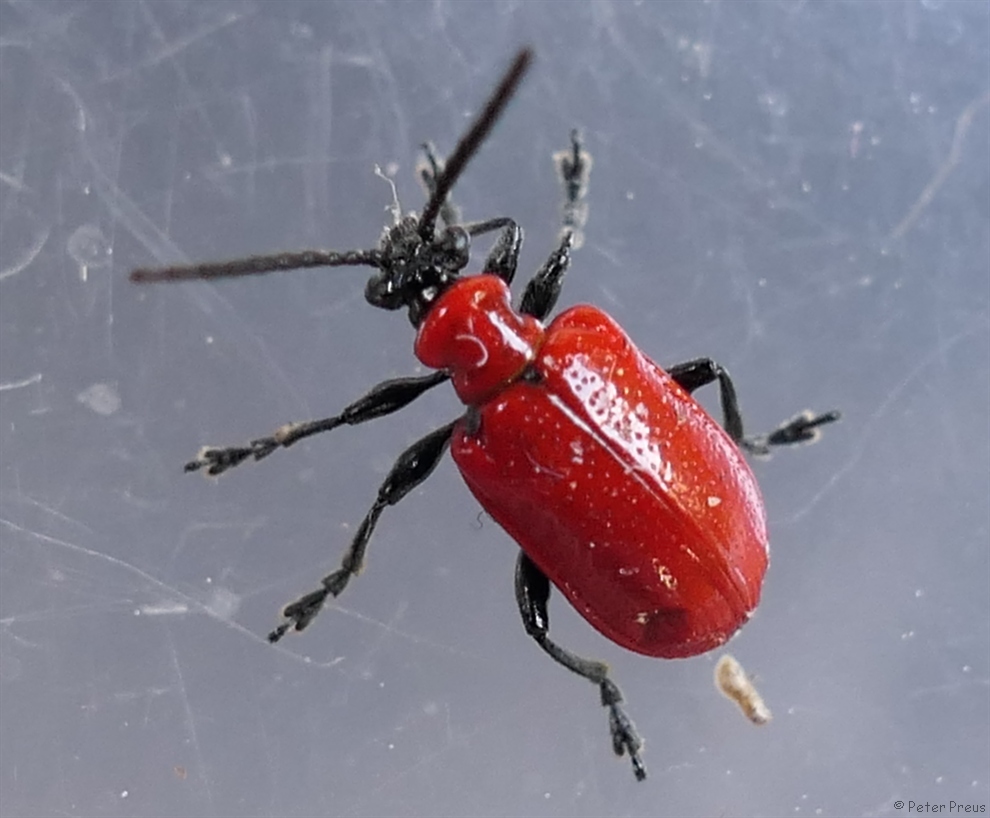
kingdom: Animalia
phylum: Arthropoda
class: Insecta
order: Coleoptera
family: Chrysomelidae
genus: Lilioceris
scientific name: Lilioceris lilii
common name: Lily beetle
